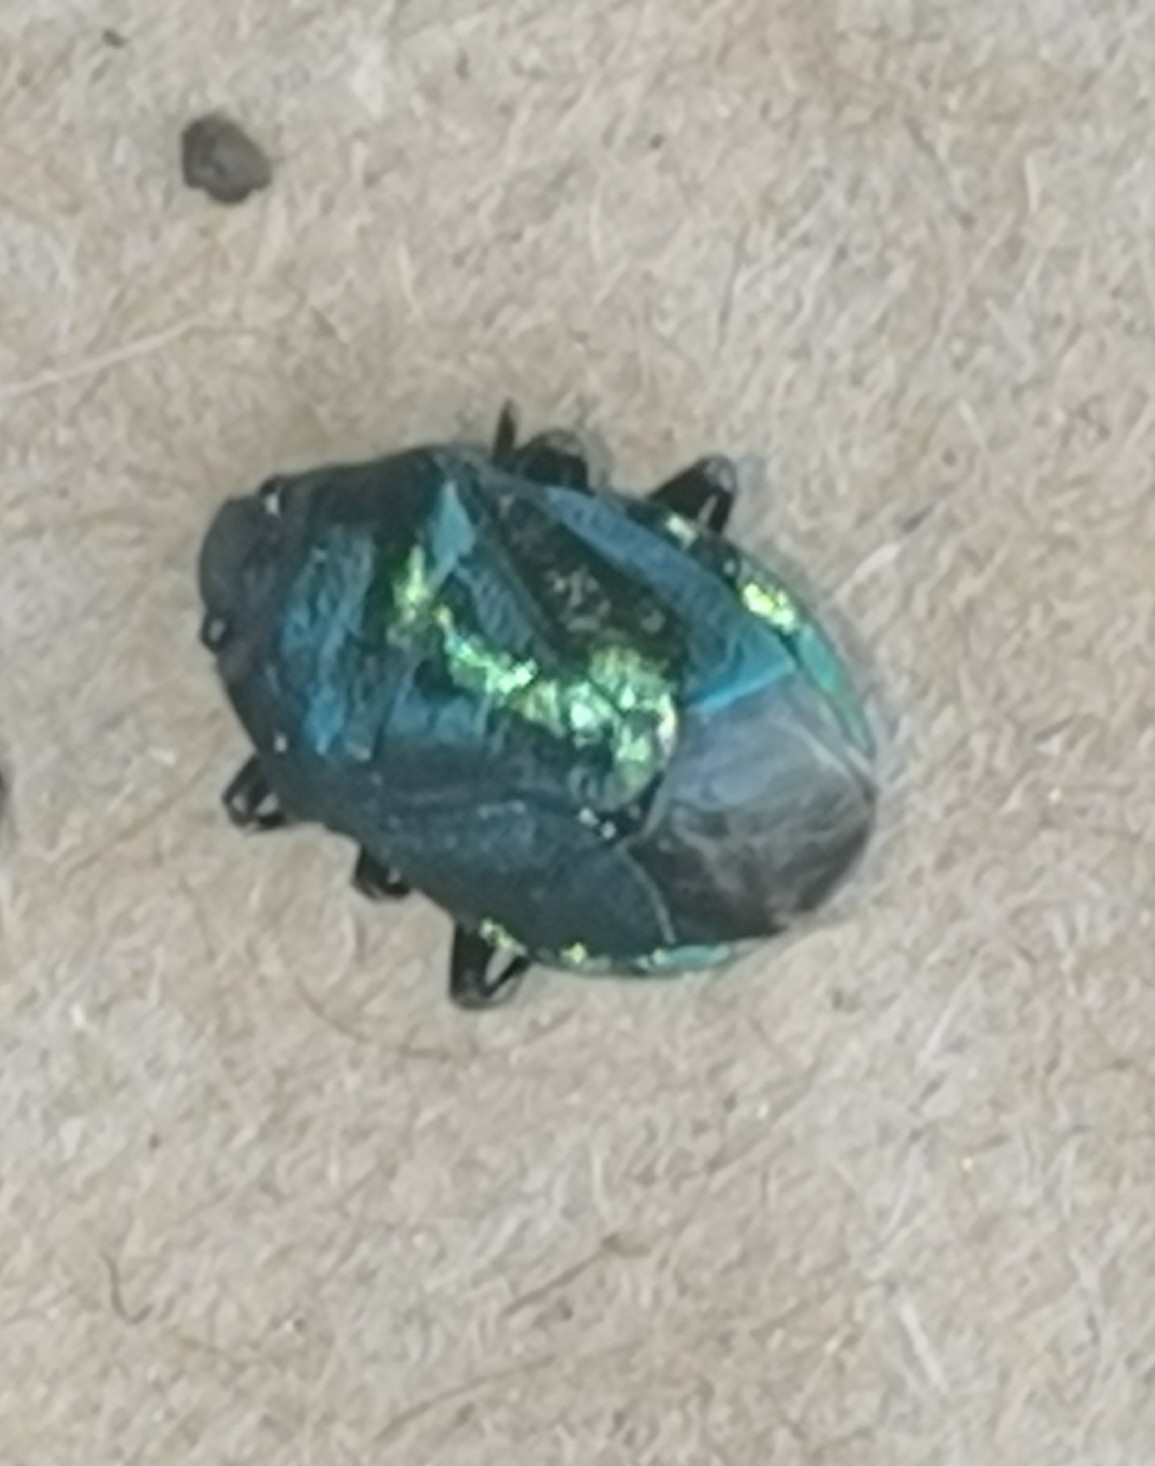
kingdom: Animalia
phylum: Arthropoda
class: Insecta
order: Hemiptera
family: Pentatomidae
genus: Zicrona
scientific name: Zicrona caerulea
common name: Blue shieldbug
